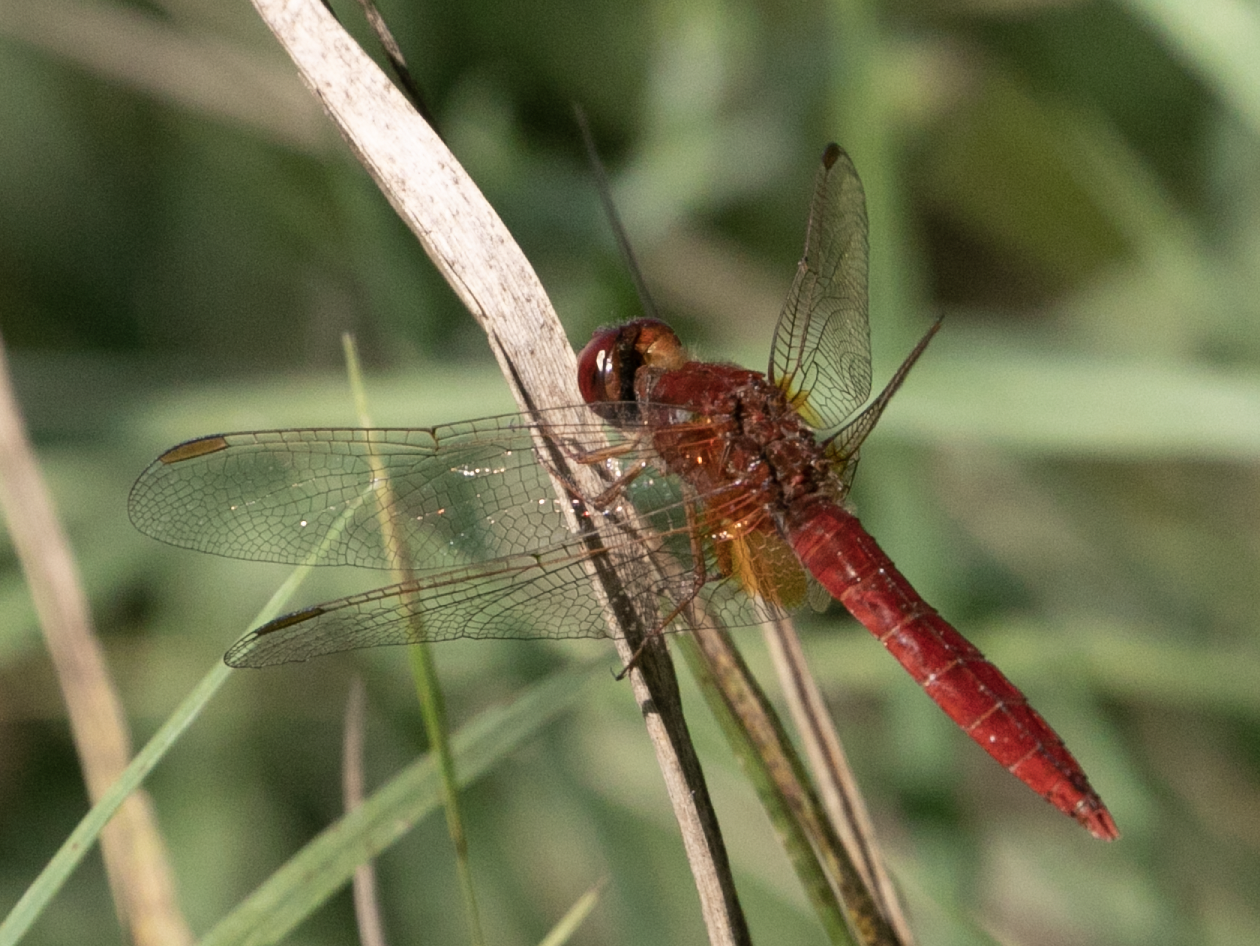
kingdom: Animalia
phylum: Arthropoda
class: Insecta
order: Odonata
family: Libellulidae
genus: Crocothemis
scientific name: Crocothemis erythraea
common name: Scarlet dragonfly
